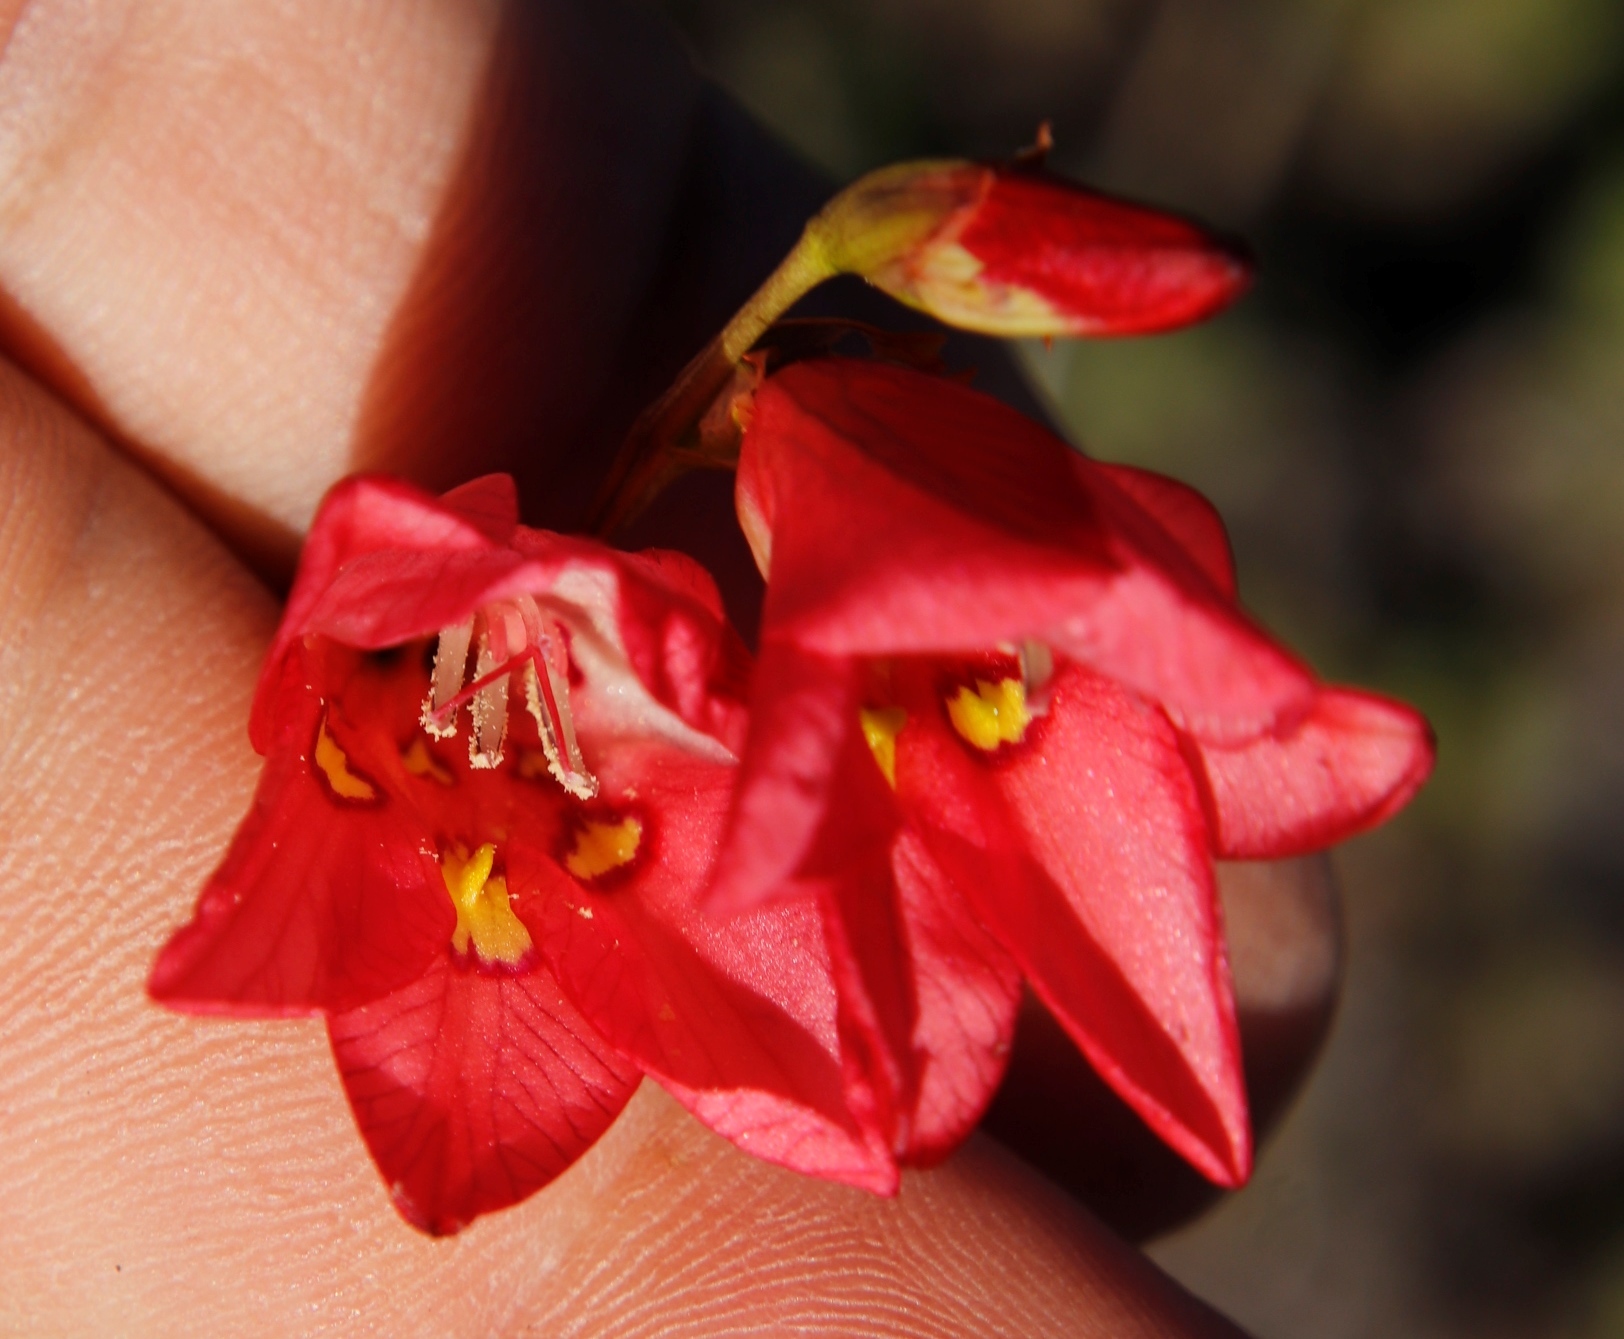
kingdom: Plantae
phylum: Tracheophyta
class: Liliopsida
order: Asparagales
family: Iridaceae
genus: Tritonia
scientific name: Tritonia drakensbergensis
